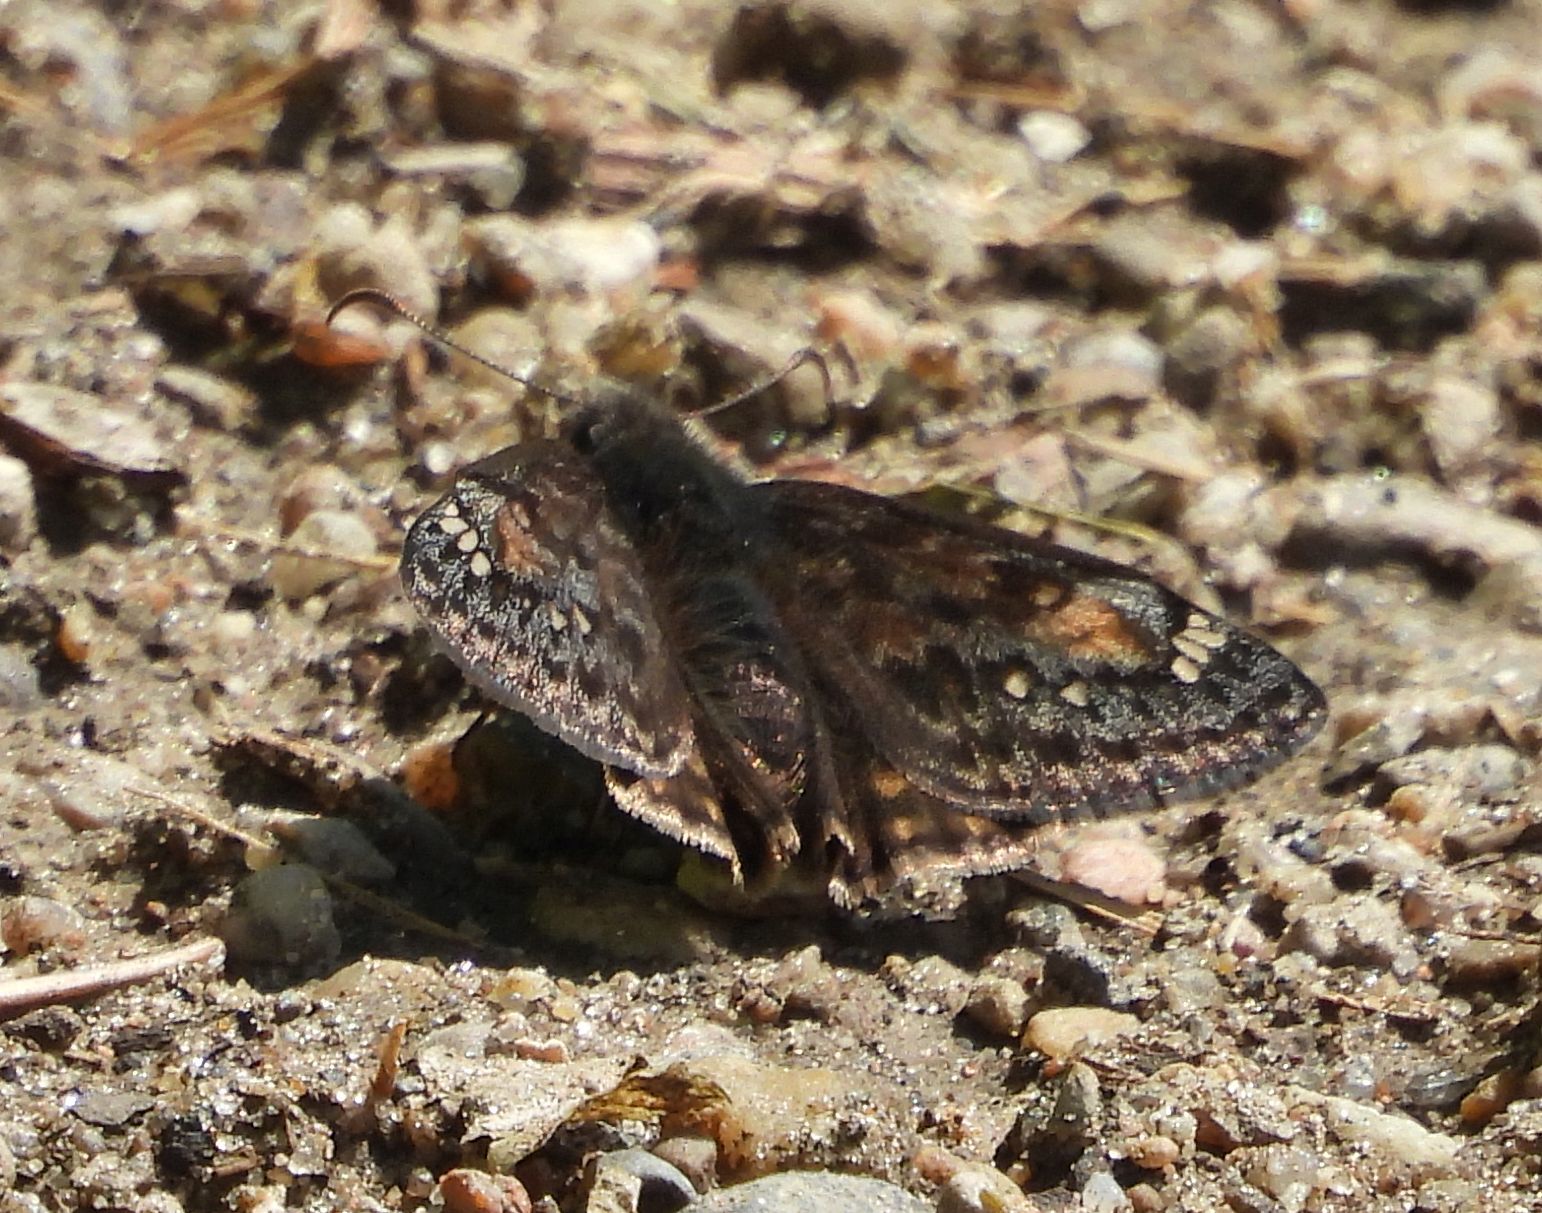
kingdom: Animalia
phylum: Arthropoda
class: Insecta
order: Lepidoptera
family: Hesperiidae
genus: Erynnis
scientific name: Erynnis juvenalis
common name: Juvenal's duskywing
